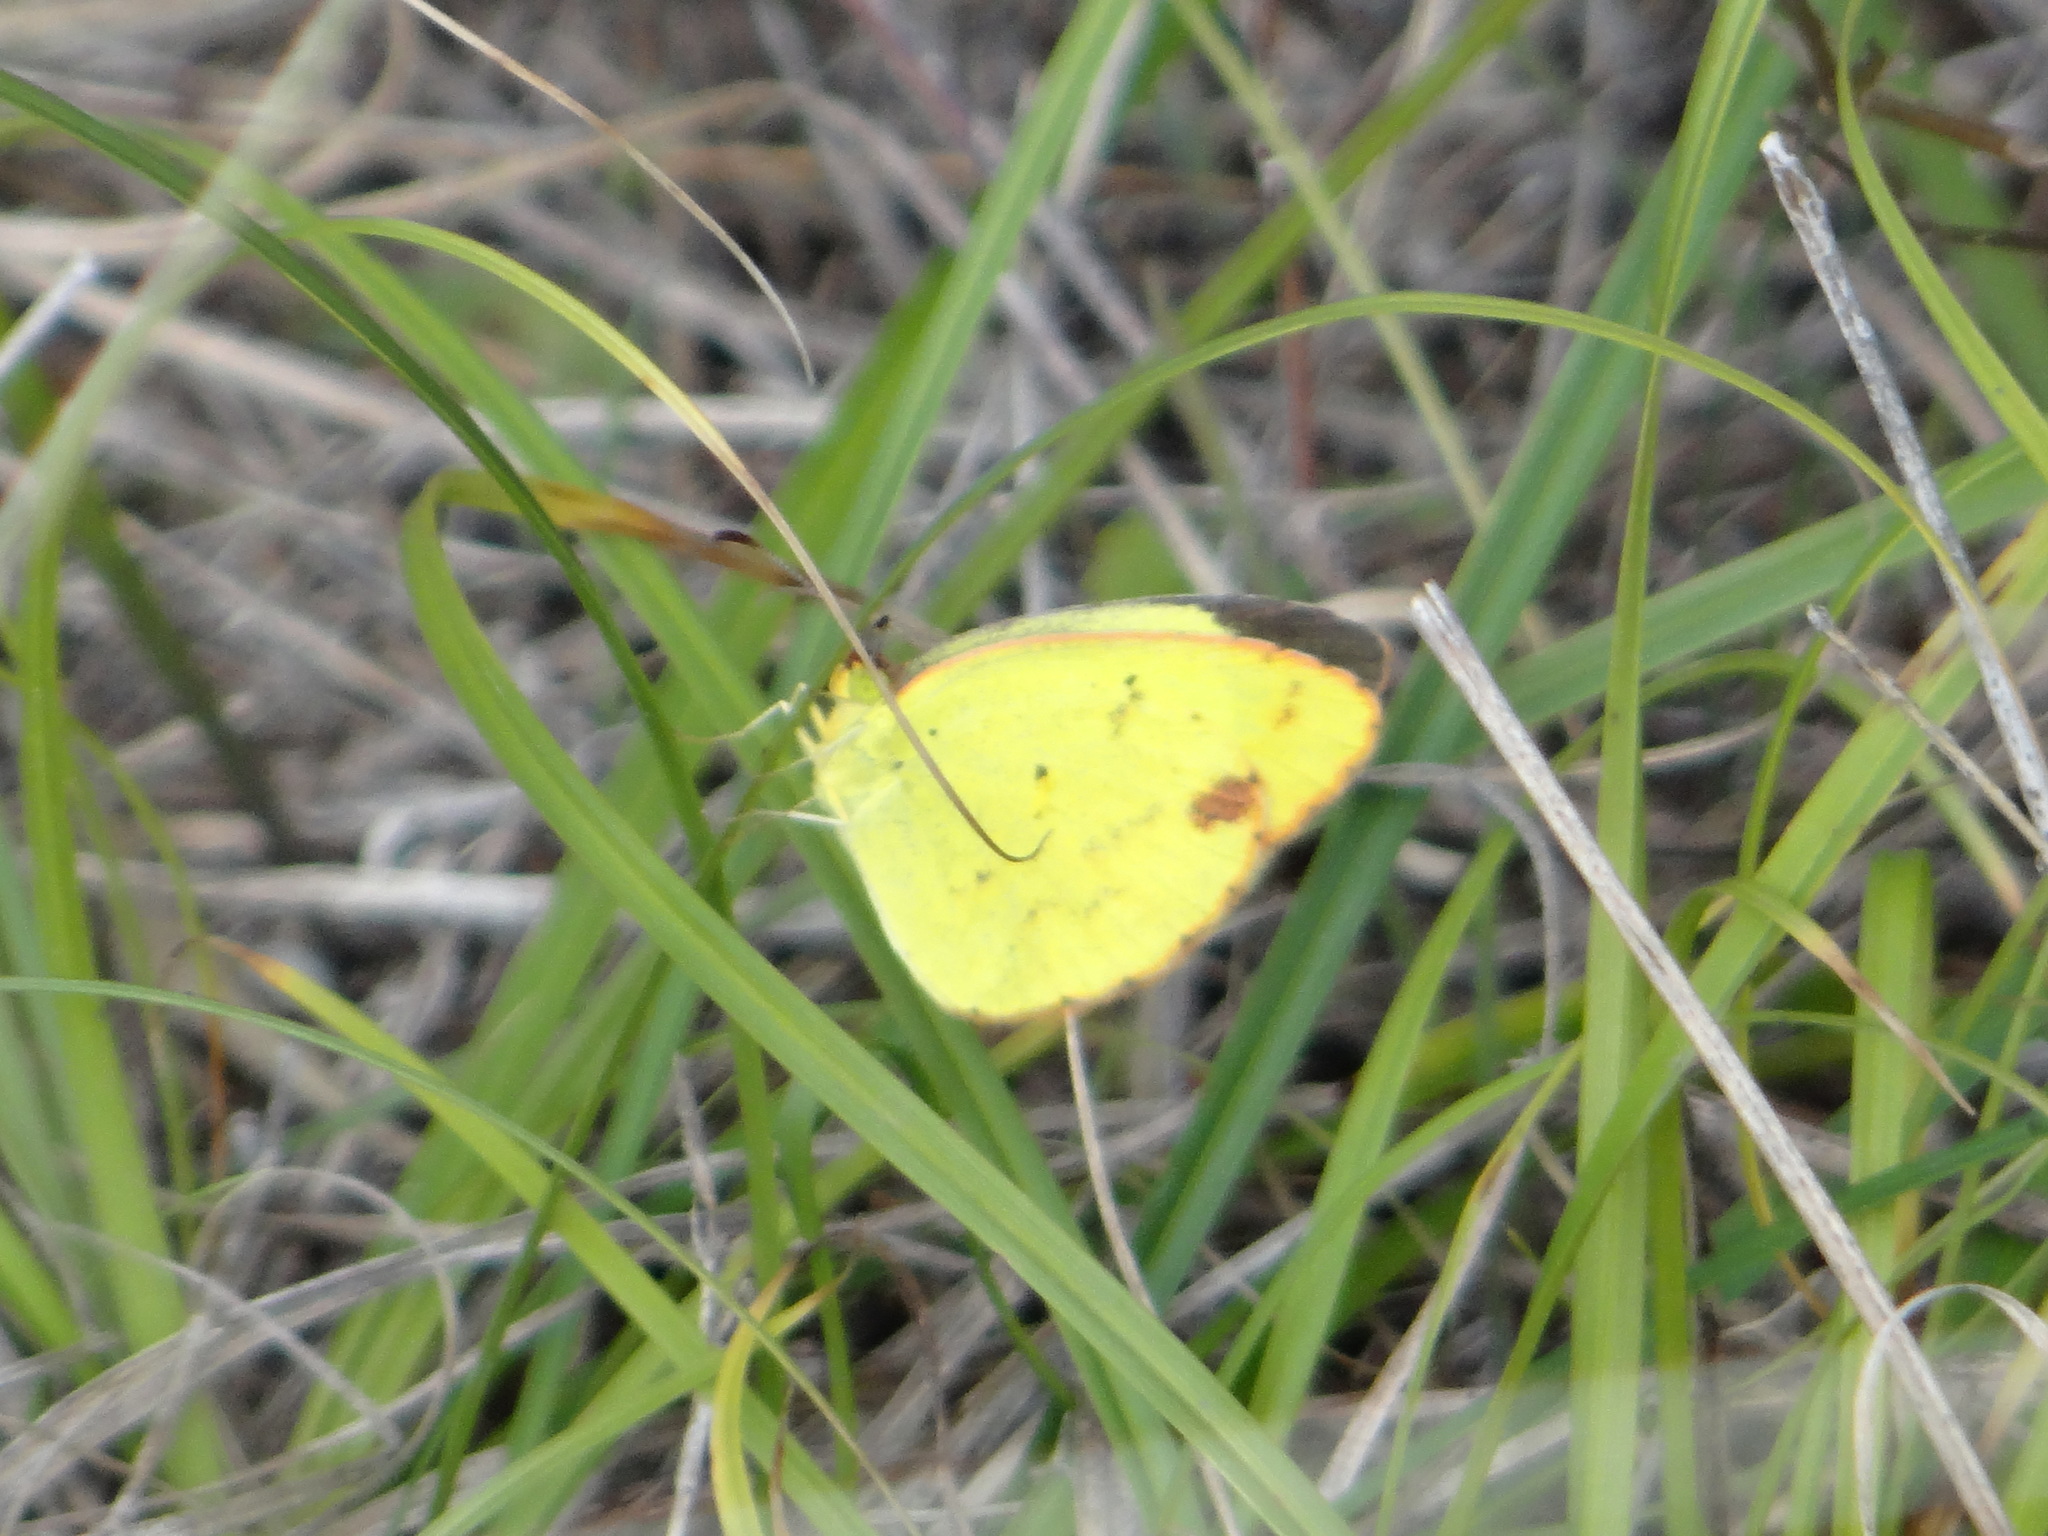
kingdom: Animalia
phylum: Arthropoda
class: Insecta
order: Lepidoptera
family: Pieridae
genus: Pyrisitia
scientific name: Pyrisitia lisa
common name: Little yellow
